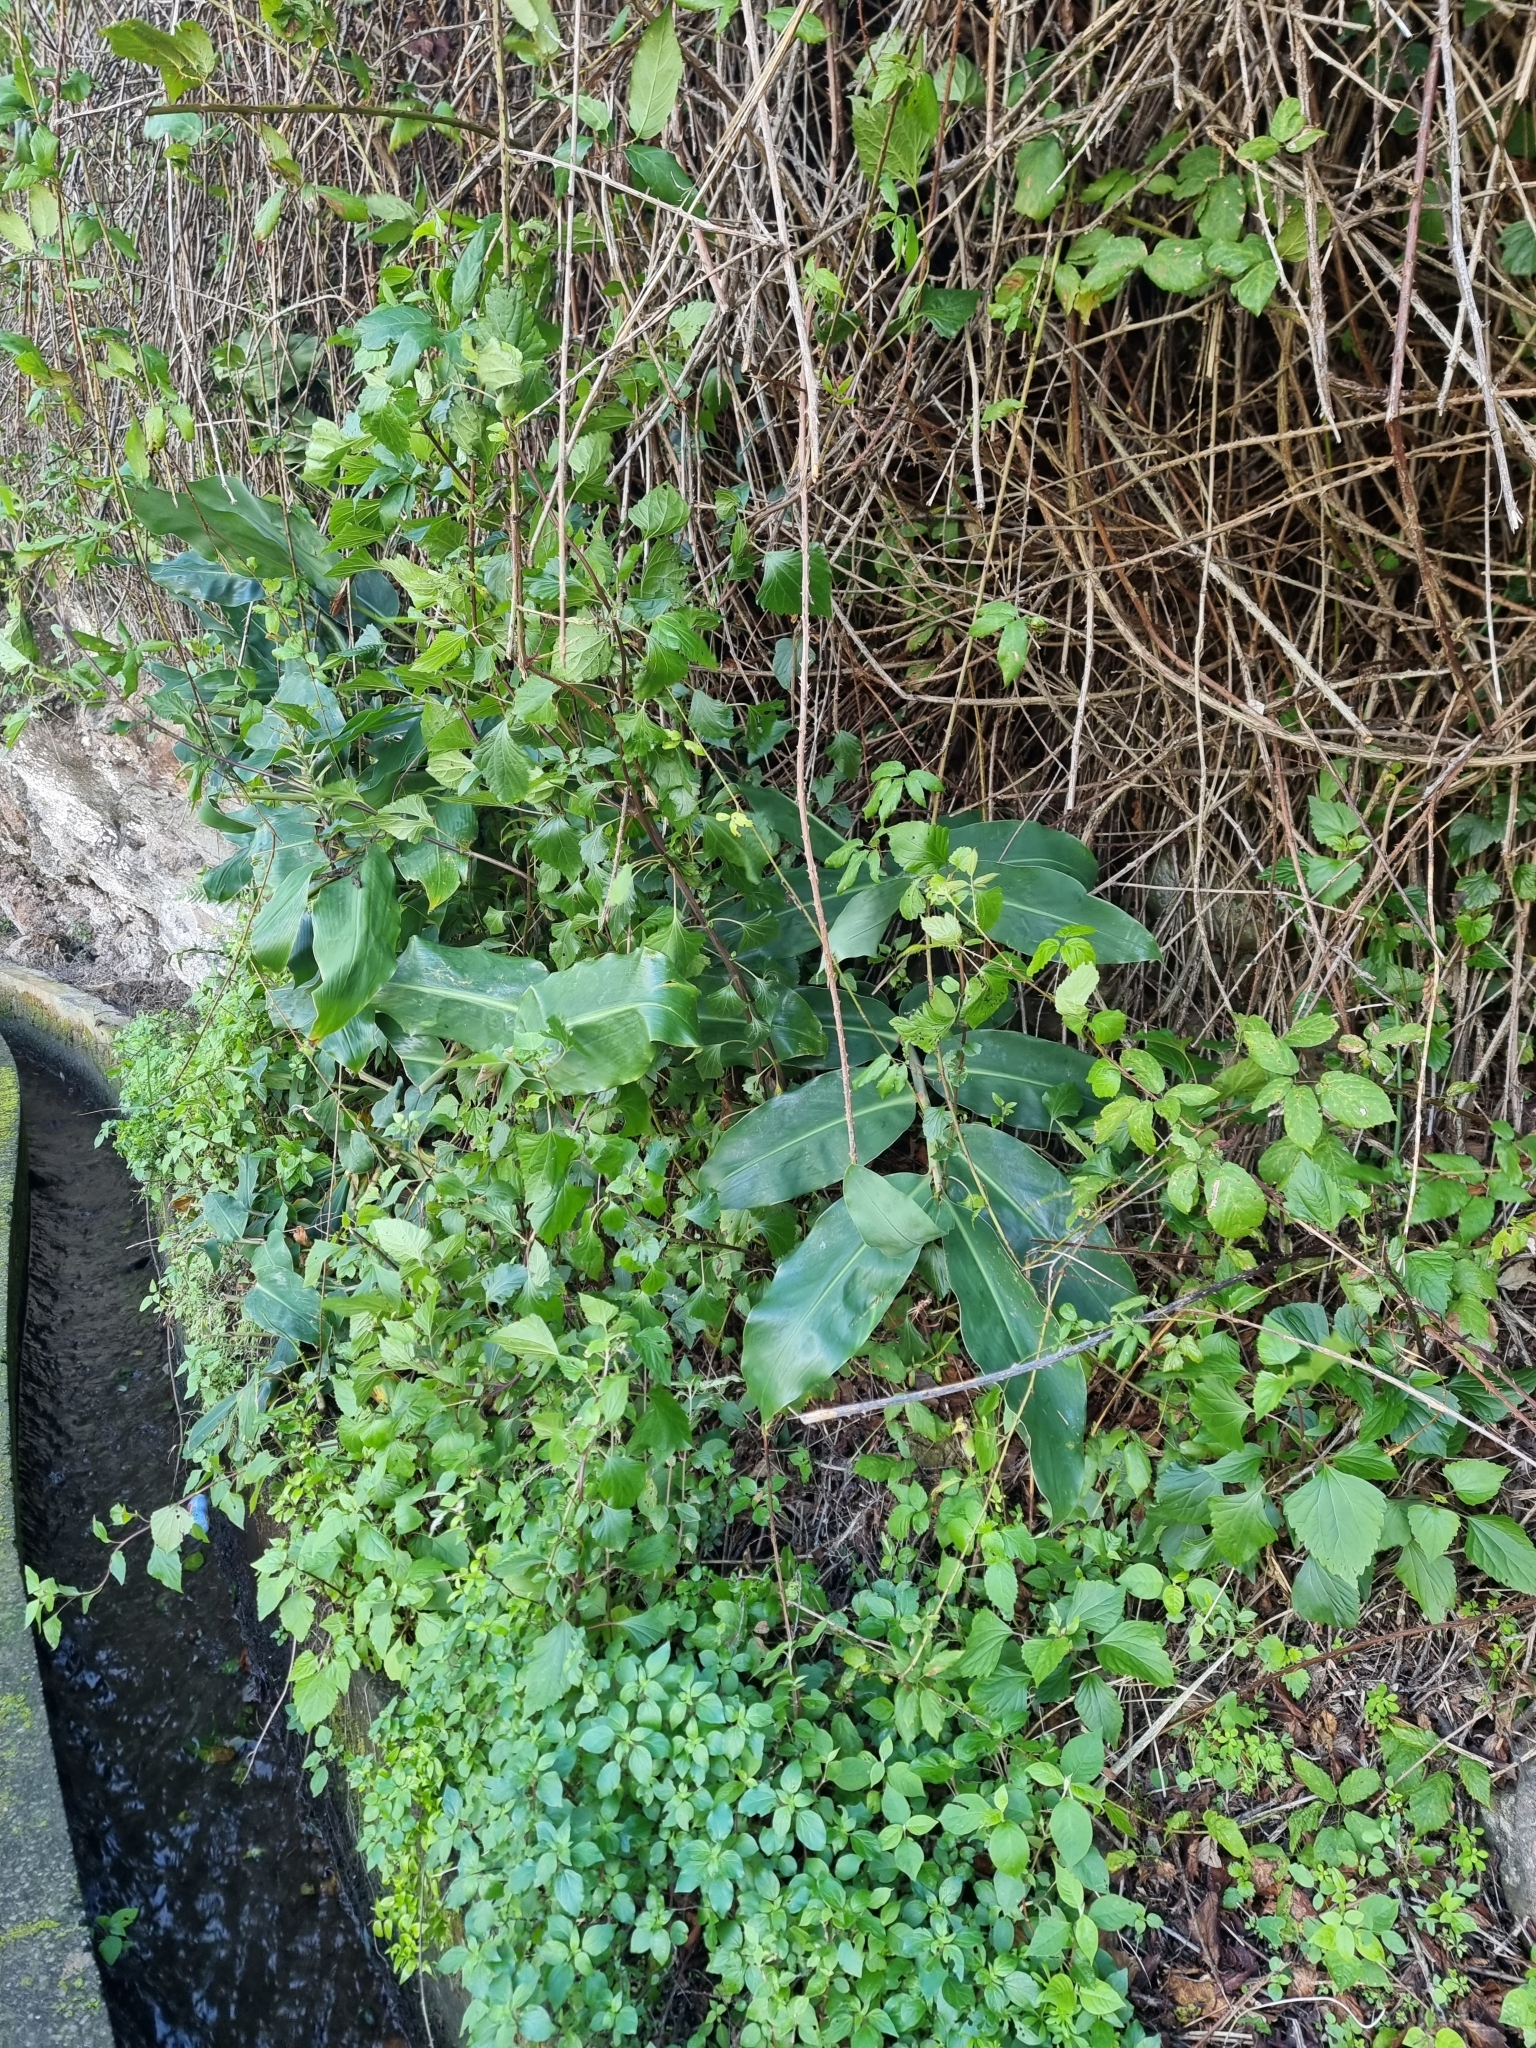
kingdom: Plantae
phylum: Tracheophyta
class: Liliopsida
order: Zingiberales
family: Zingiberaceae
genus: Hedychium
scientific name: Hedychium gardnerianum
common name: Himalayan ginger
